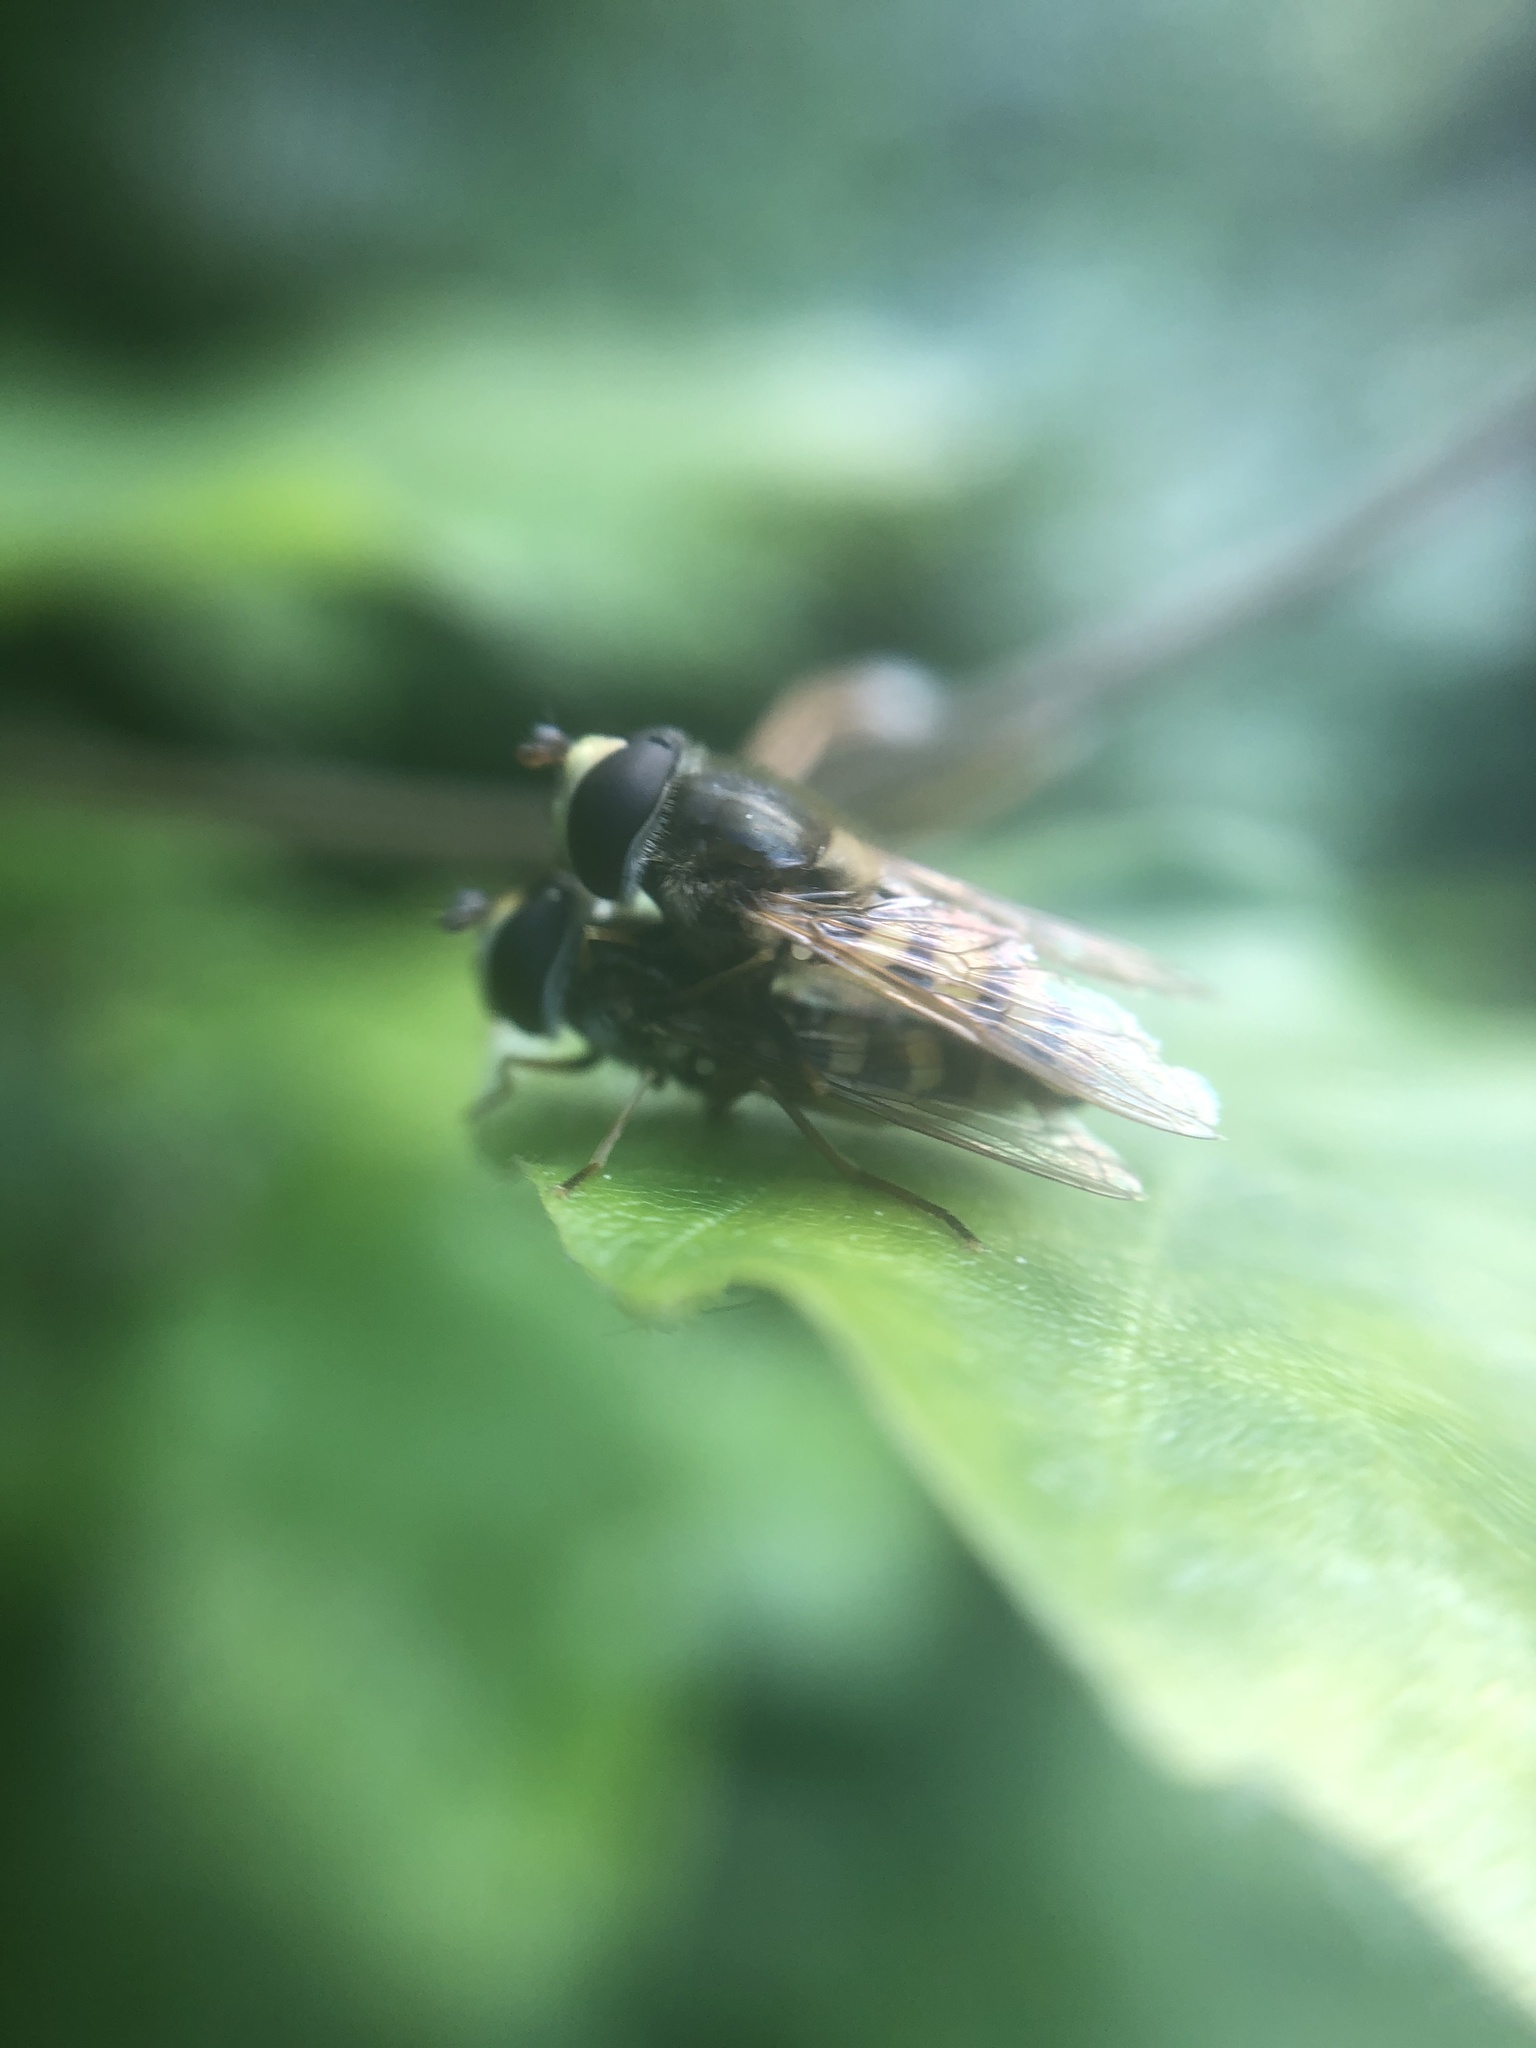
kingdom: Animalia
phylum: Arthropoda
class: Insecta
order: Diptera
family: Syrphidae
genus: Eupeodes
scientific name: Eupeodes corollae
